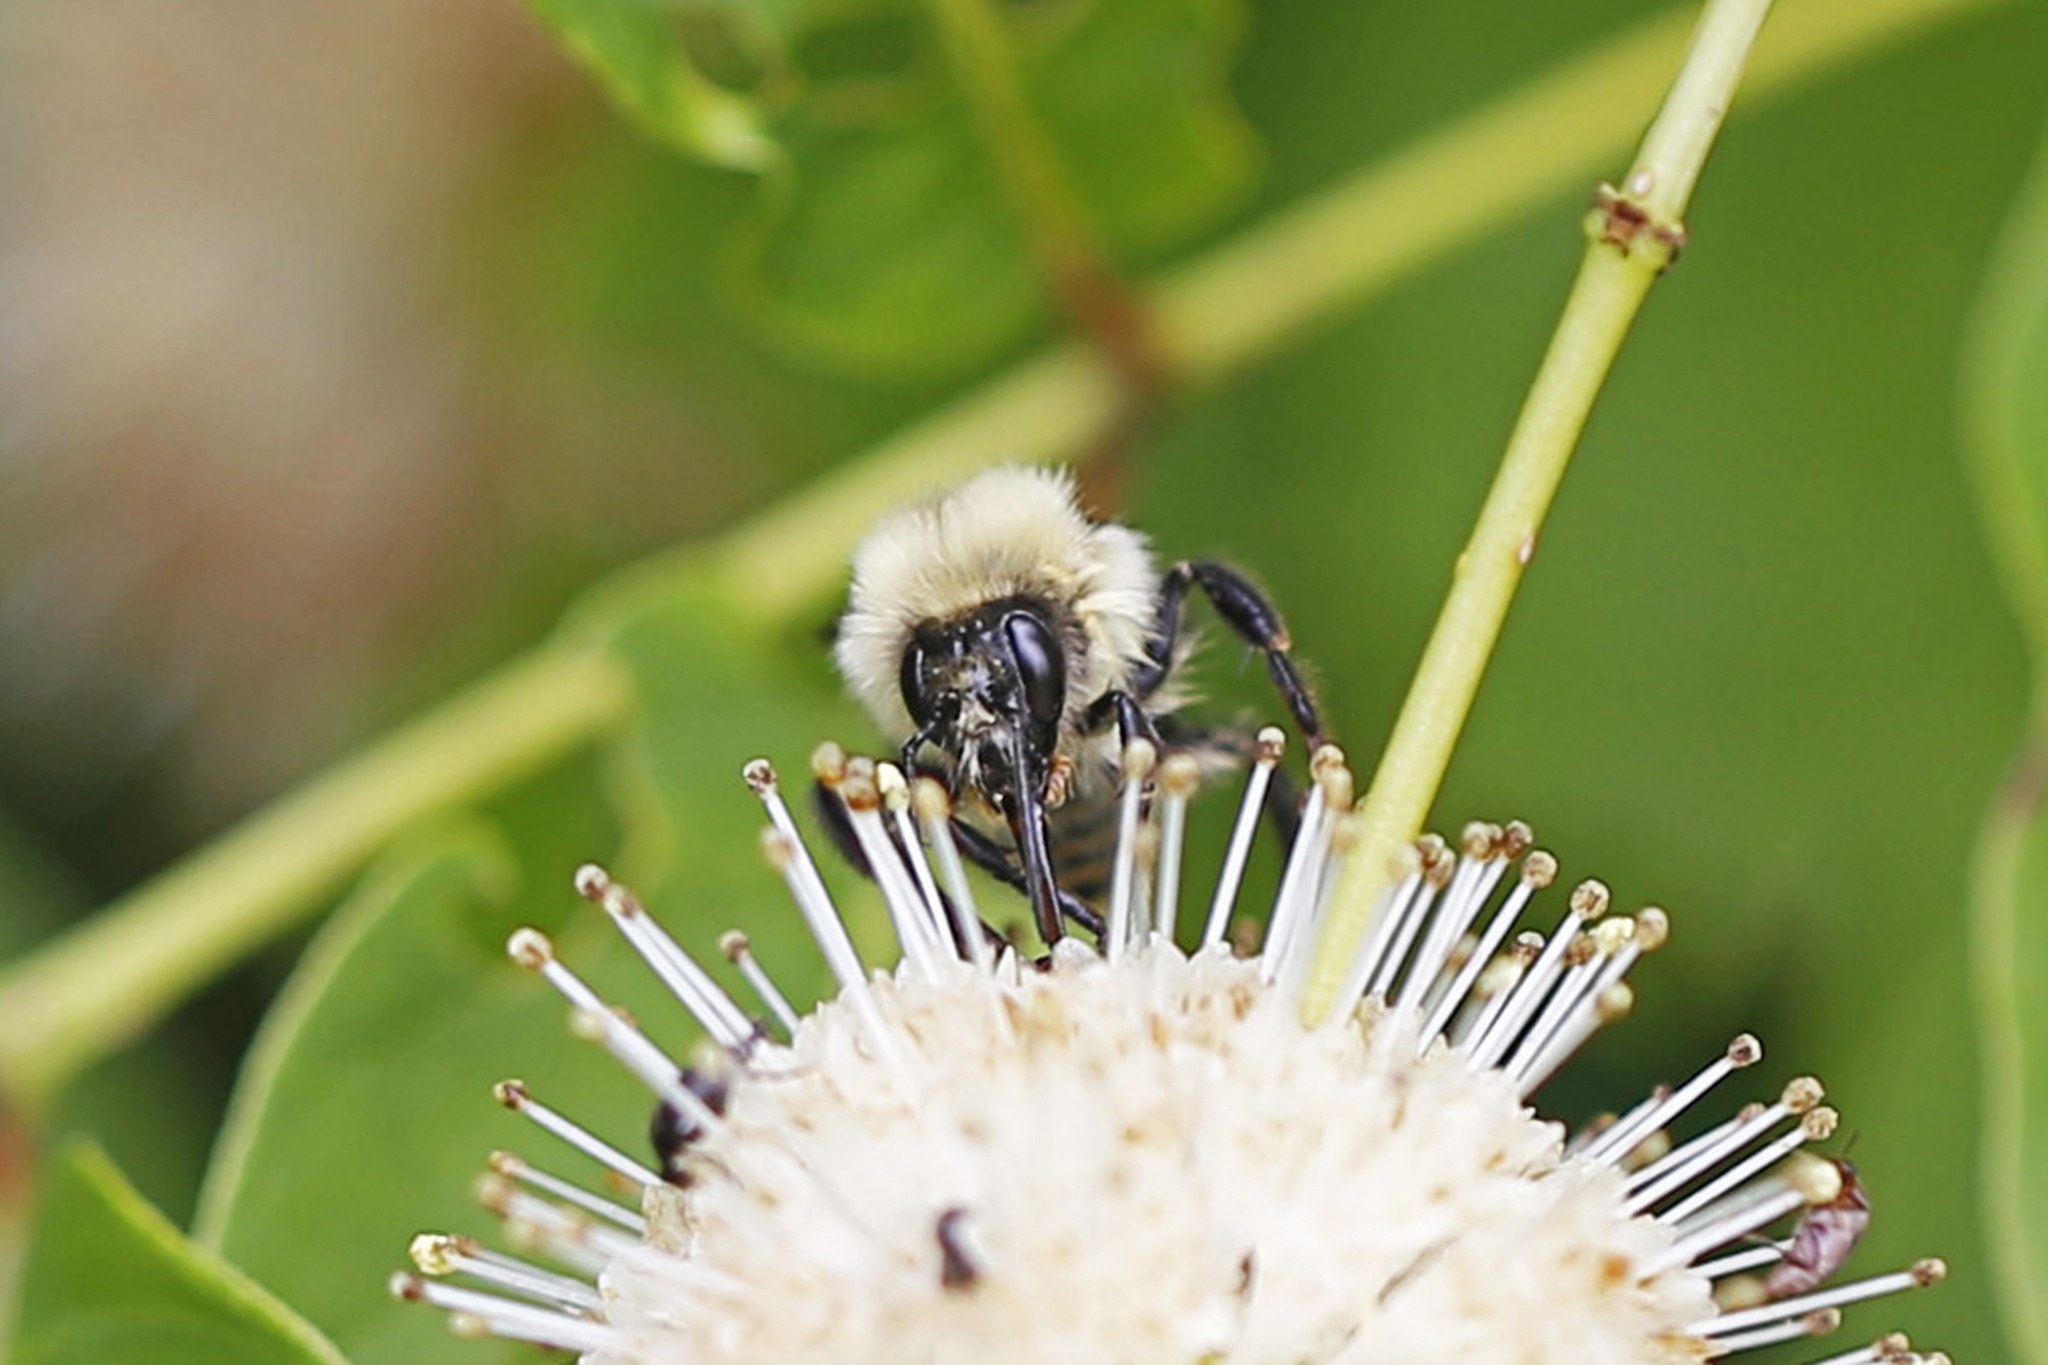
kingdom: Animalia
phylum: Arthropoda
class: Insecta
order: Hymenoptera
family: Apidae
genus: Bombus
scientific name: Bombus bimaculatus
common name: Two-spotted bumble bee
